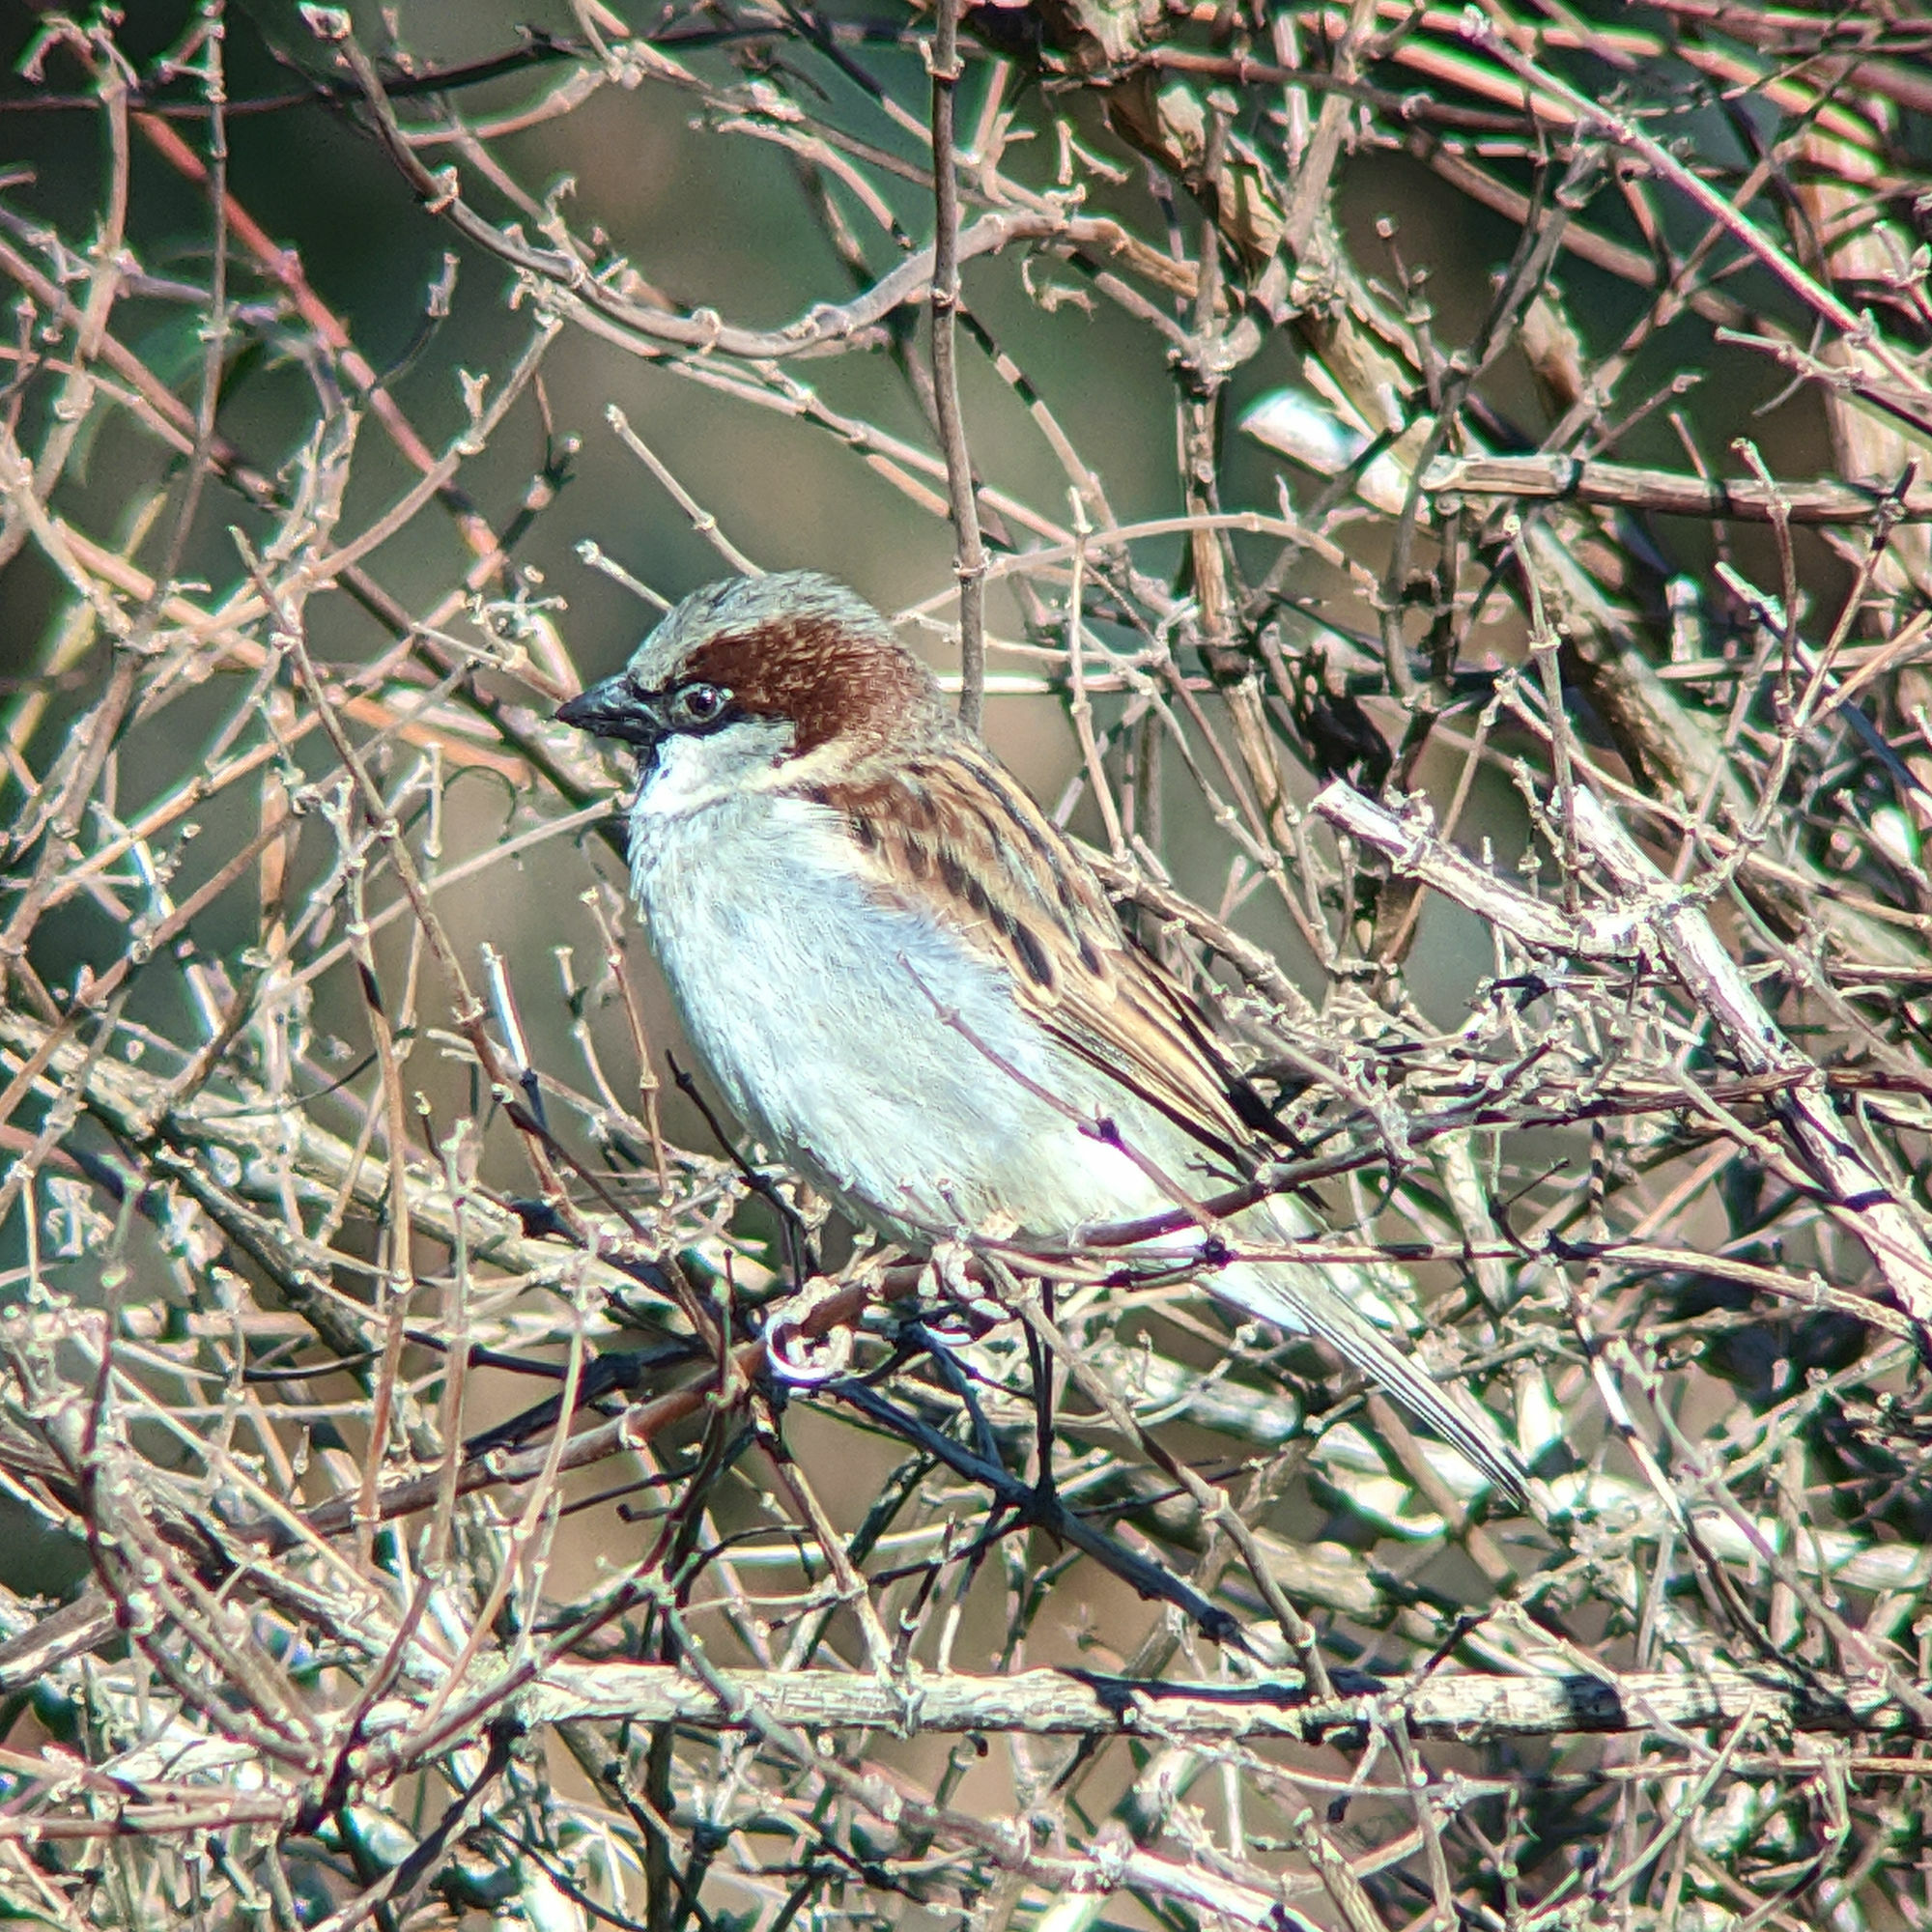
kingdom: Animalia
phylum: Chordata
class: Aves
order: Passeriformes
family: Passeridae
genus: Passer
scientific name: Passer domesticus
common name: House sparrow
